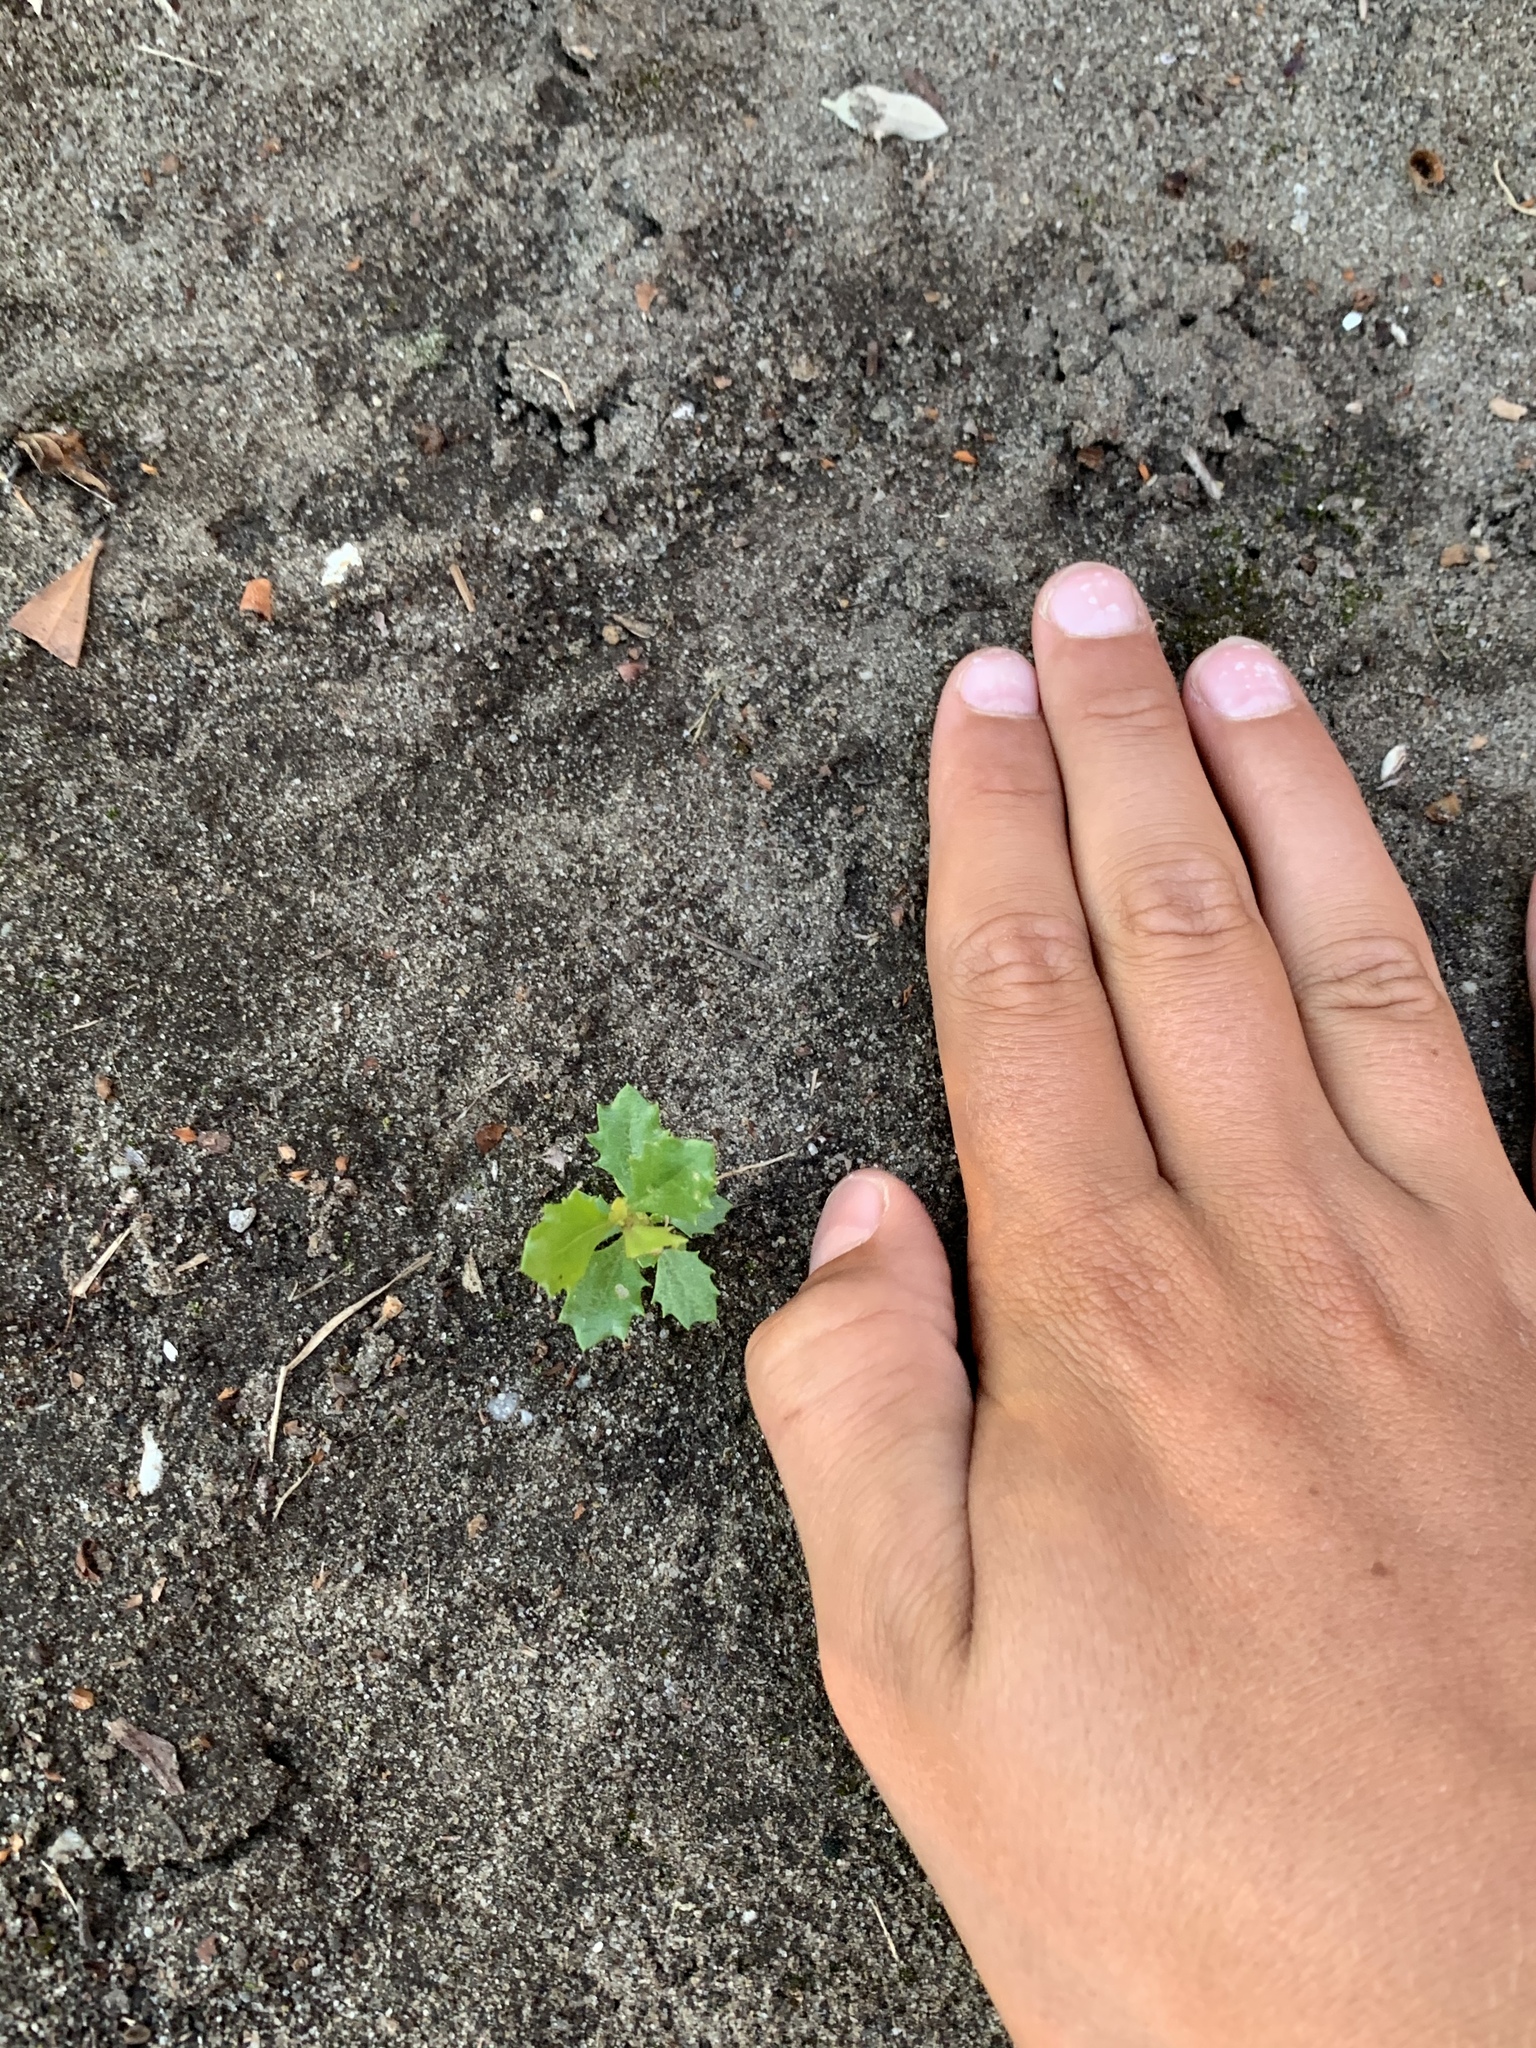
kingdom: Plantae
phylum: Tracheophyta
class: Magnoliopsida
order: Fagales
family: Fagaceae
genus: Quercus
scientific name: Quercus agrifolia
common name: California live oak
